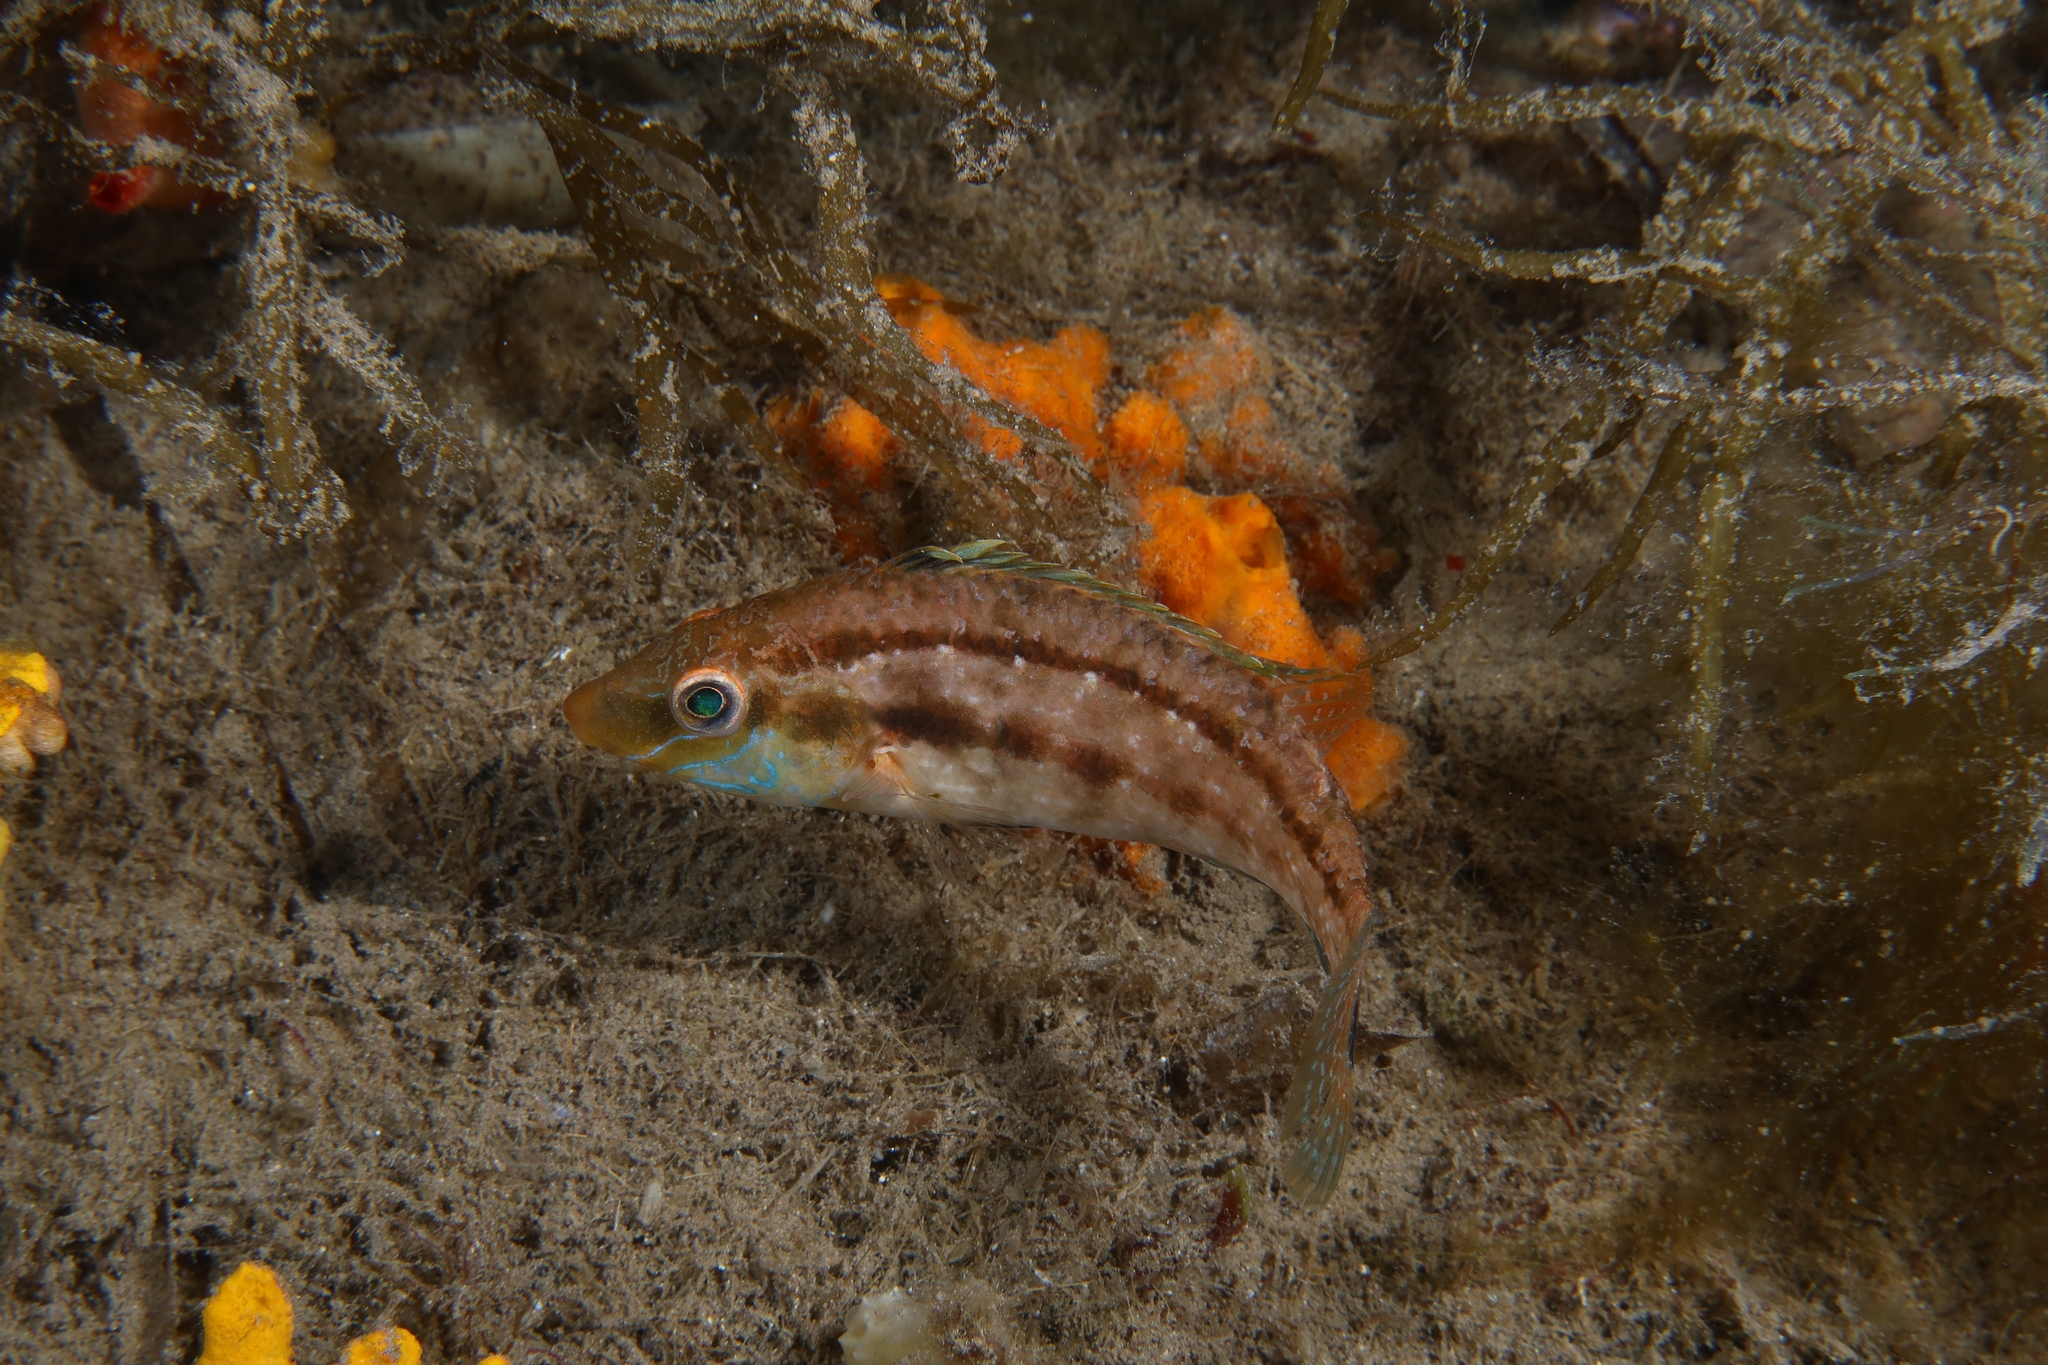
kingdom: Animalia
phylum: Chordata
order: Perciformes
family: Labridae
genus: Symphodus
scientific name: Symphodus cinereus
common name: Grey wrasse
